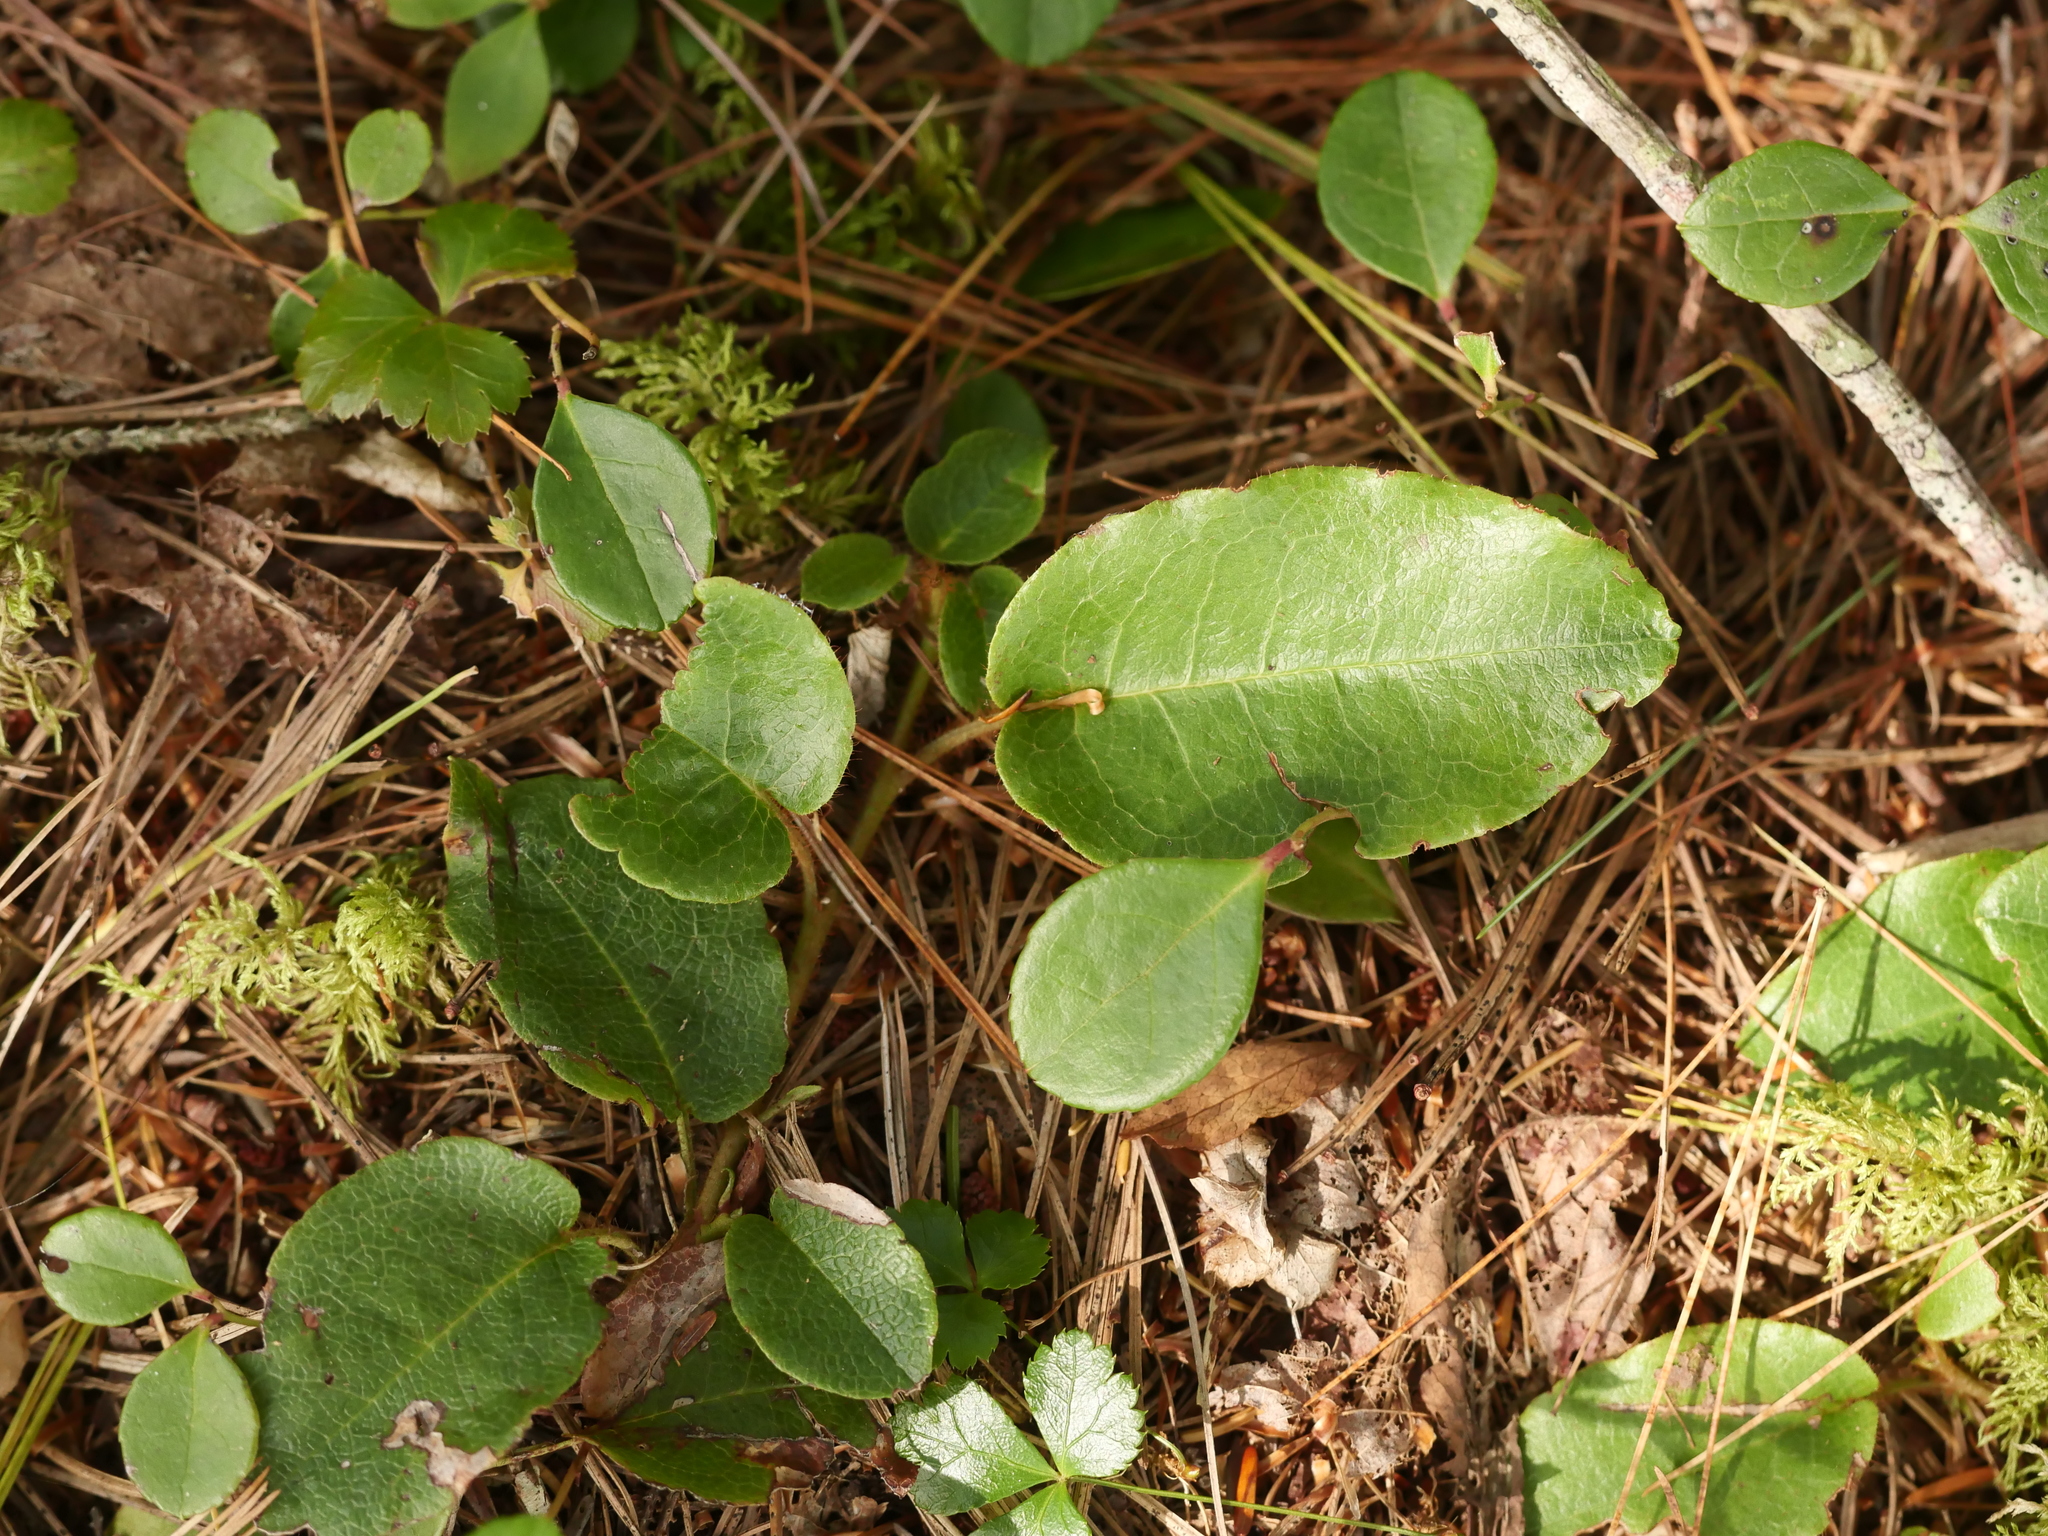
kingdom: Plantae
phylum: Tracheophyta
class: Magnoliopsida
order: Ericales
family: Ericaceae
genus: Epigaea
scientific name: Epigaea repens
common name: Gravelroot
